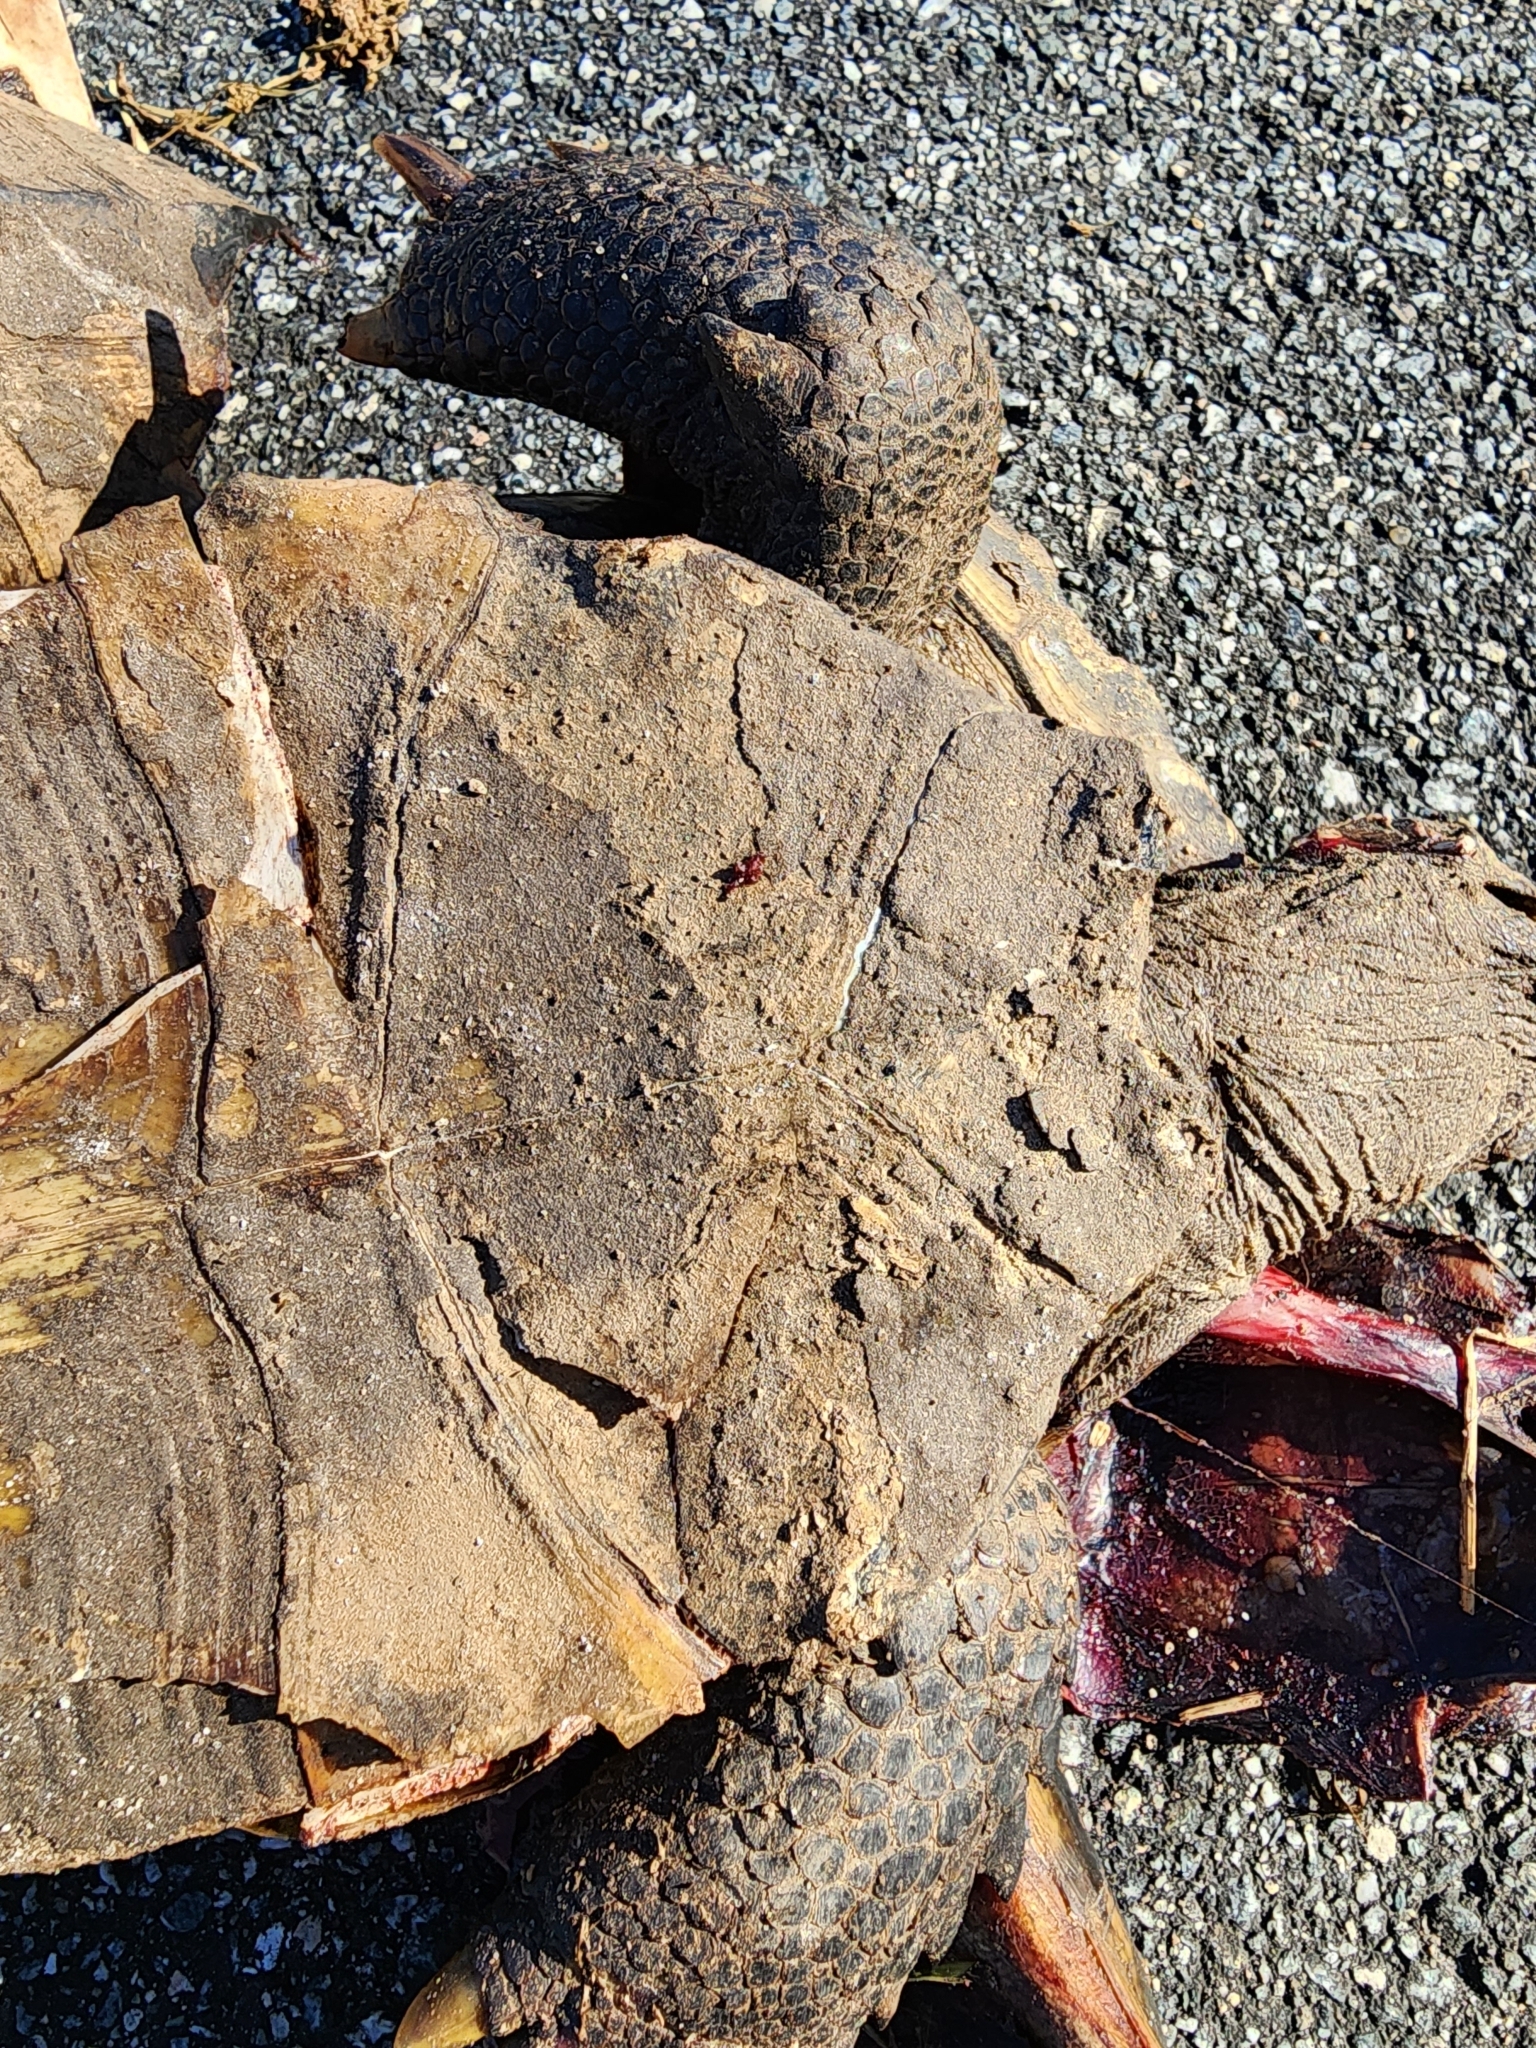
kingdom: Animalia
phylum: Chordata
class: Testudines
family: Testudinidae
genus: Gopherus
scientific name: Gopherus polyphemus
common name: Florida gopher tortoise
